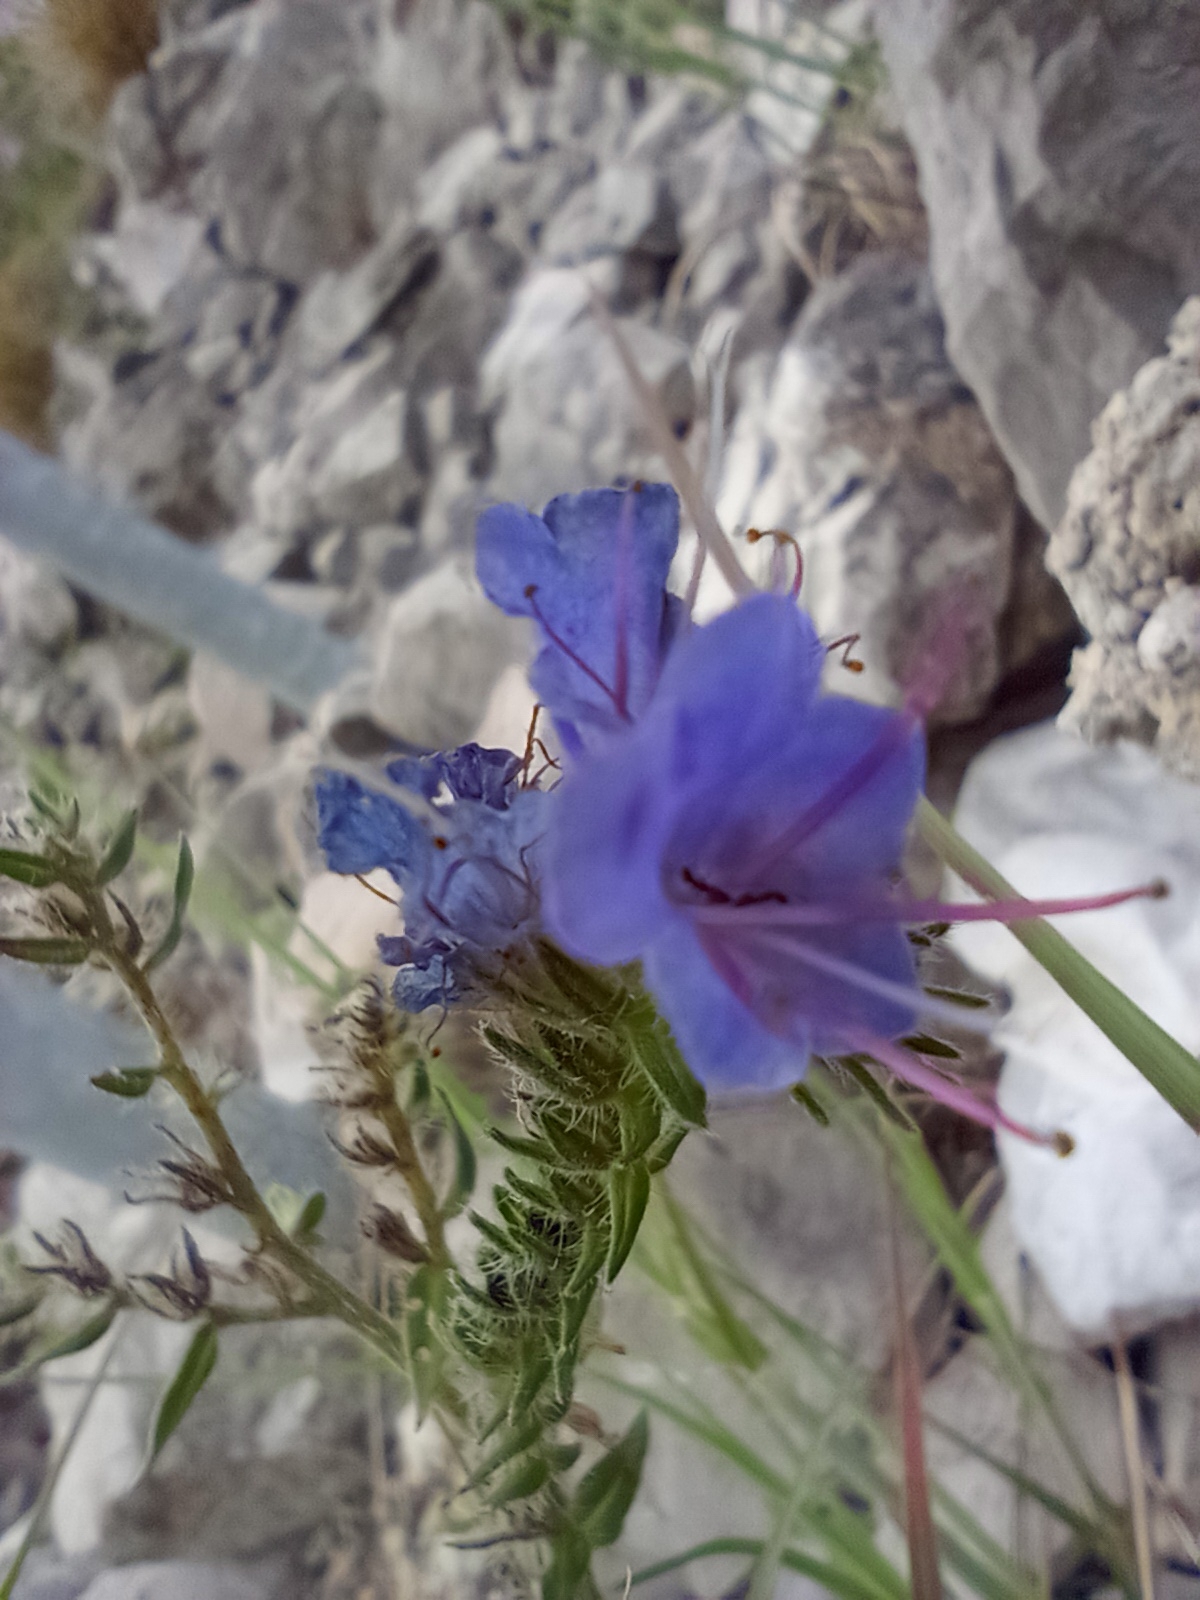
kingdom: Plantae
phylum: Tracheophyta
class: Magnoliopsida
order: Boraginales
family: Boraginaceae
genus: Echium
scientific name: Echium vulgare
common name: Common viper's bugloss
